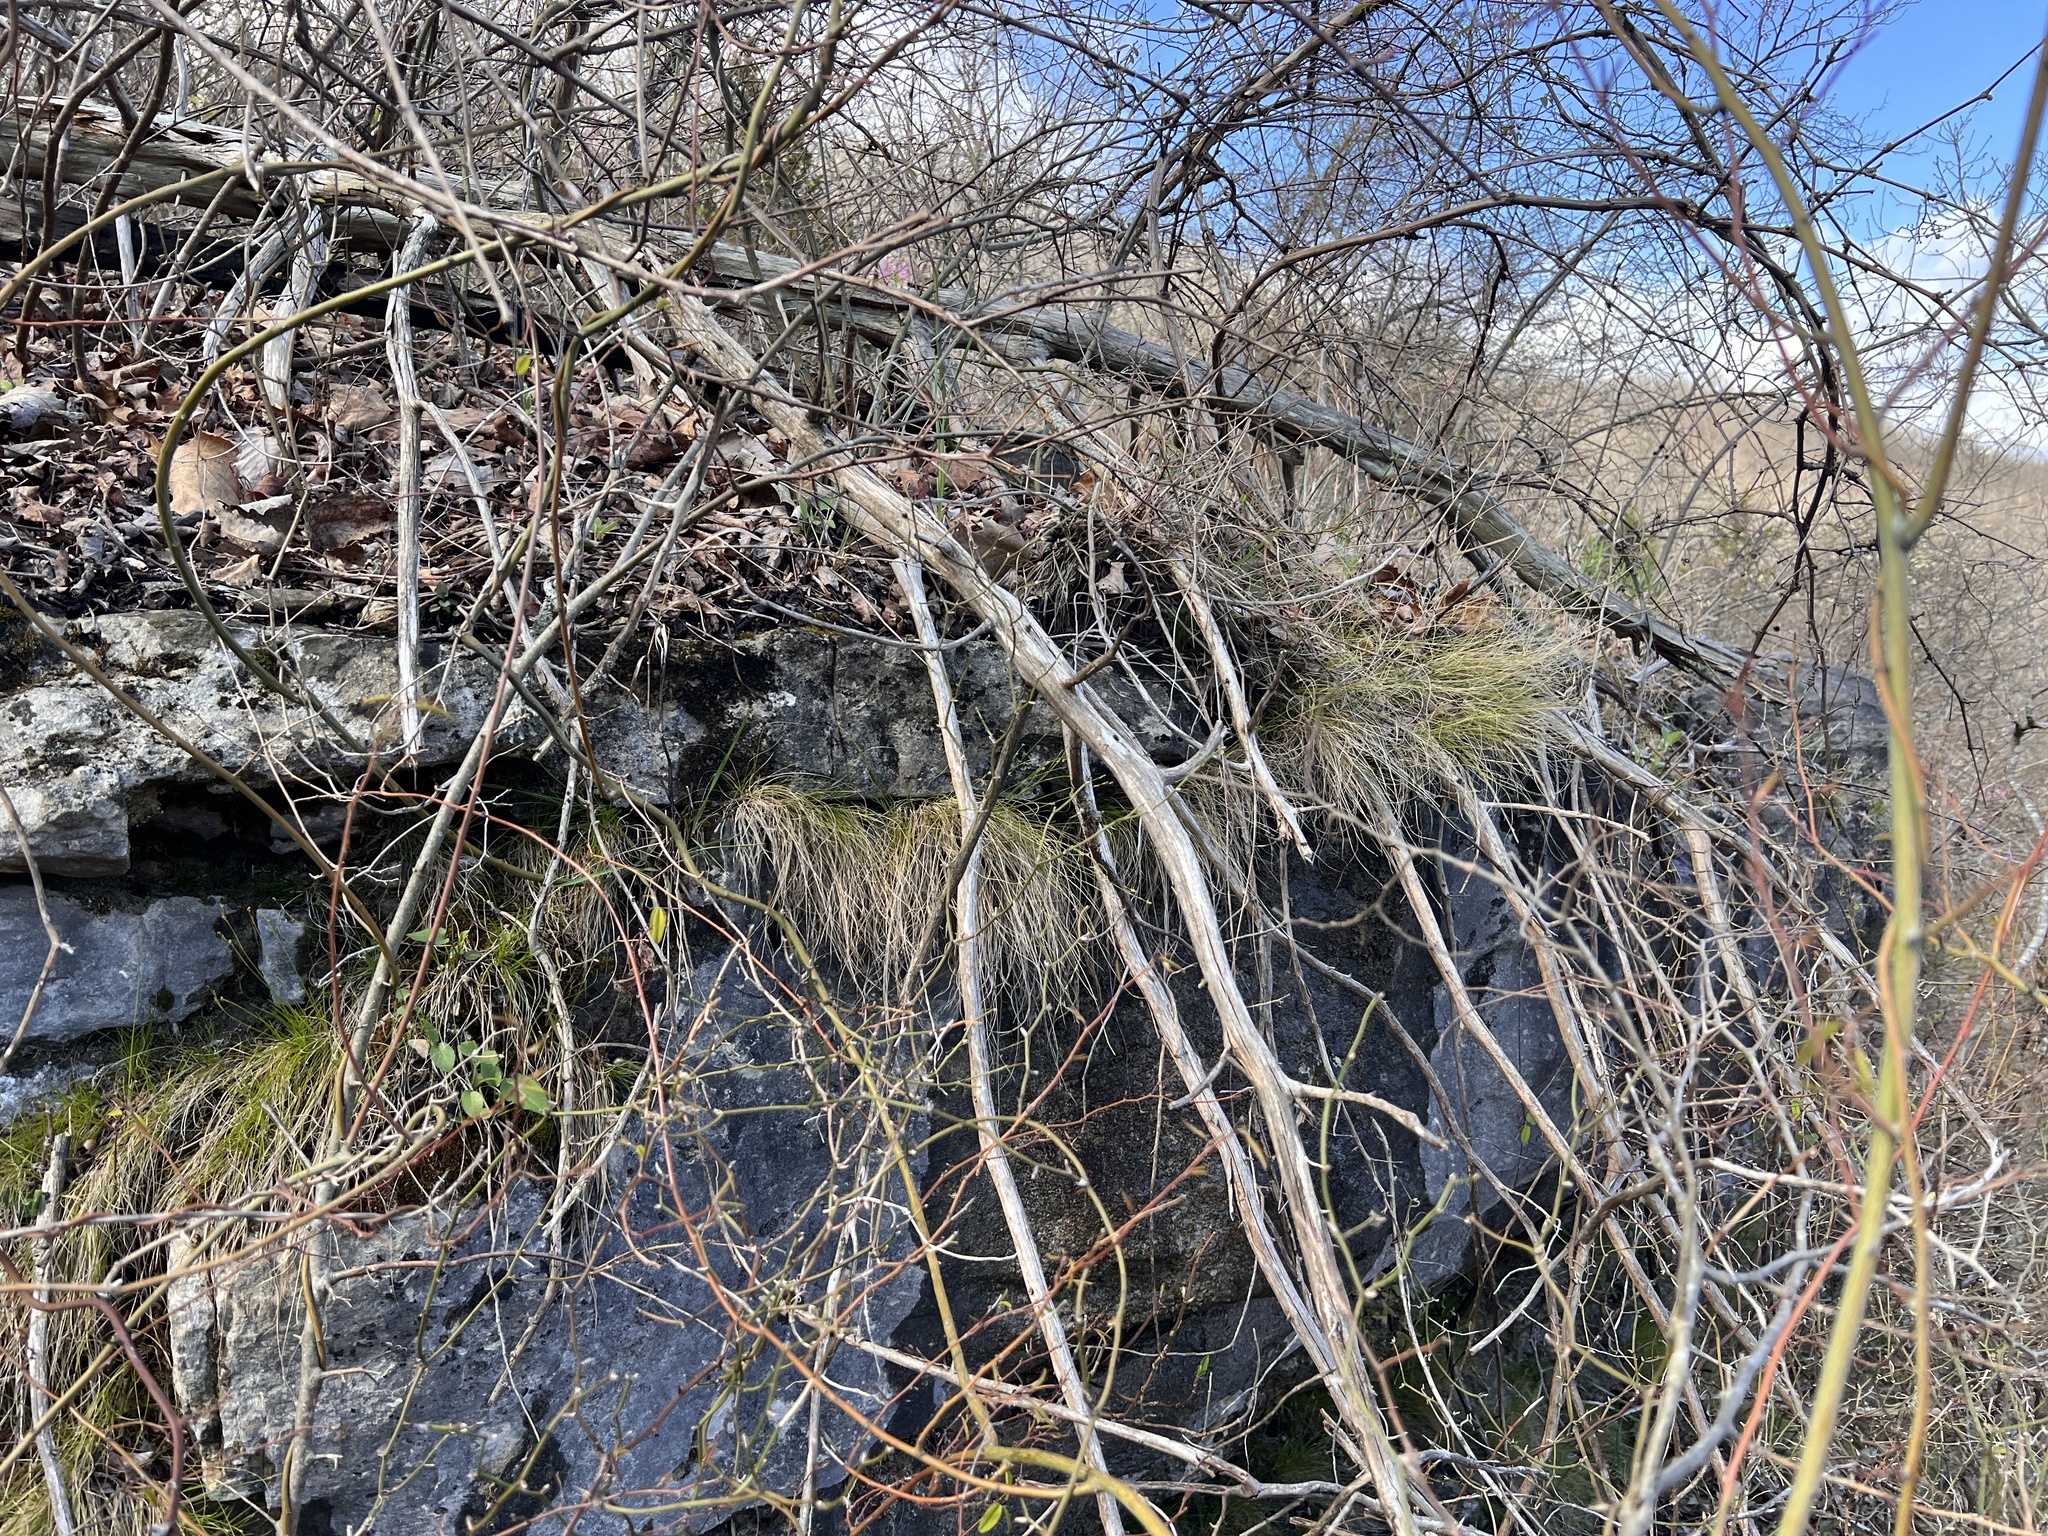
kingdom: Plantae
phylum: Tracheophyta
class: Liliopsida
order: Poales
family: Cyperaceae
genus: Carex
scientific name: Carex eburnea
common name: Bristle-leaved sedge
